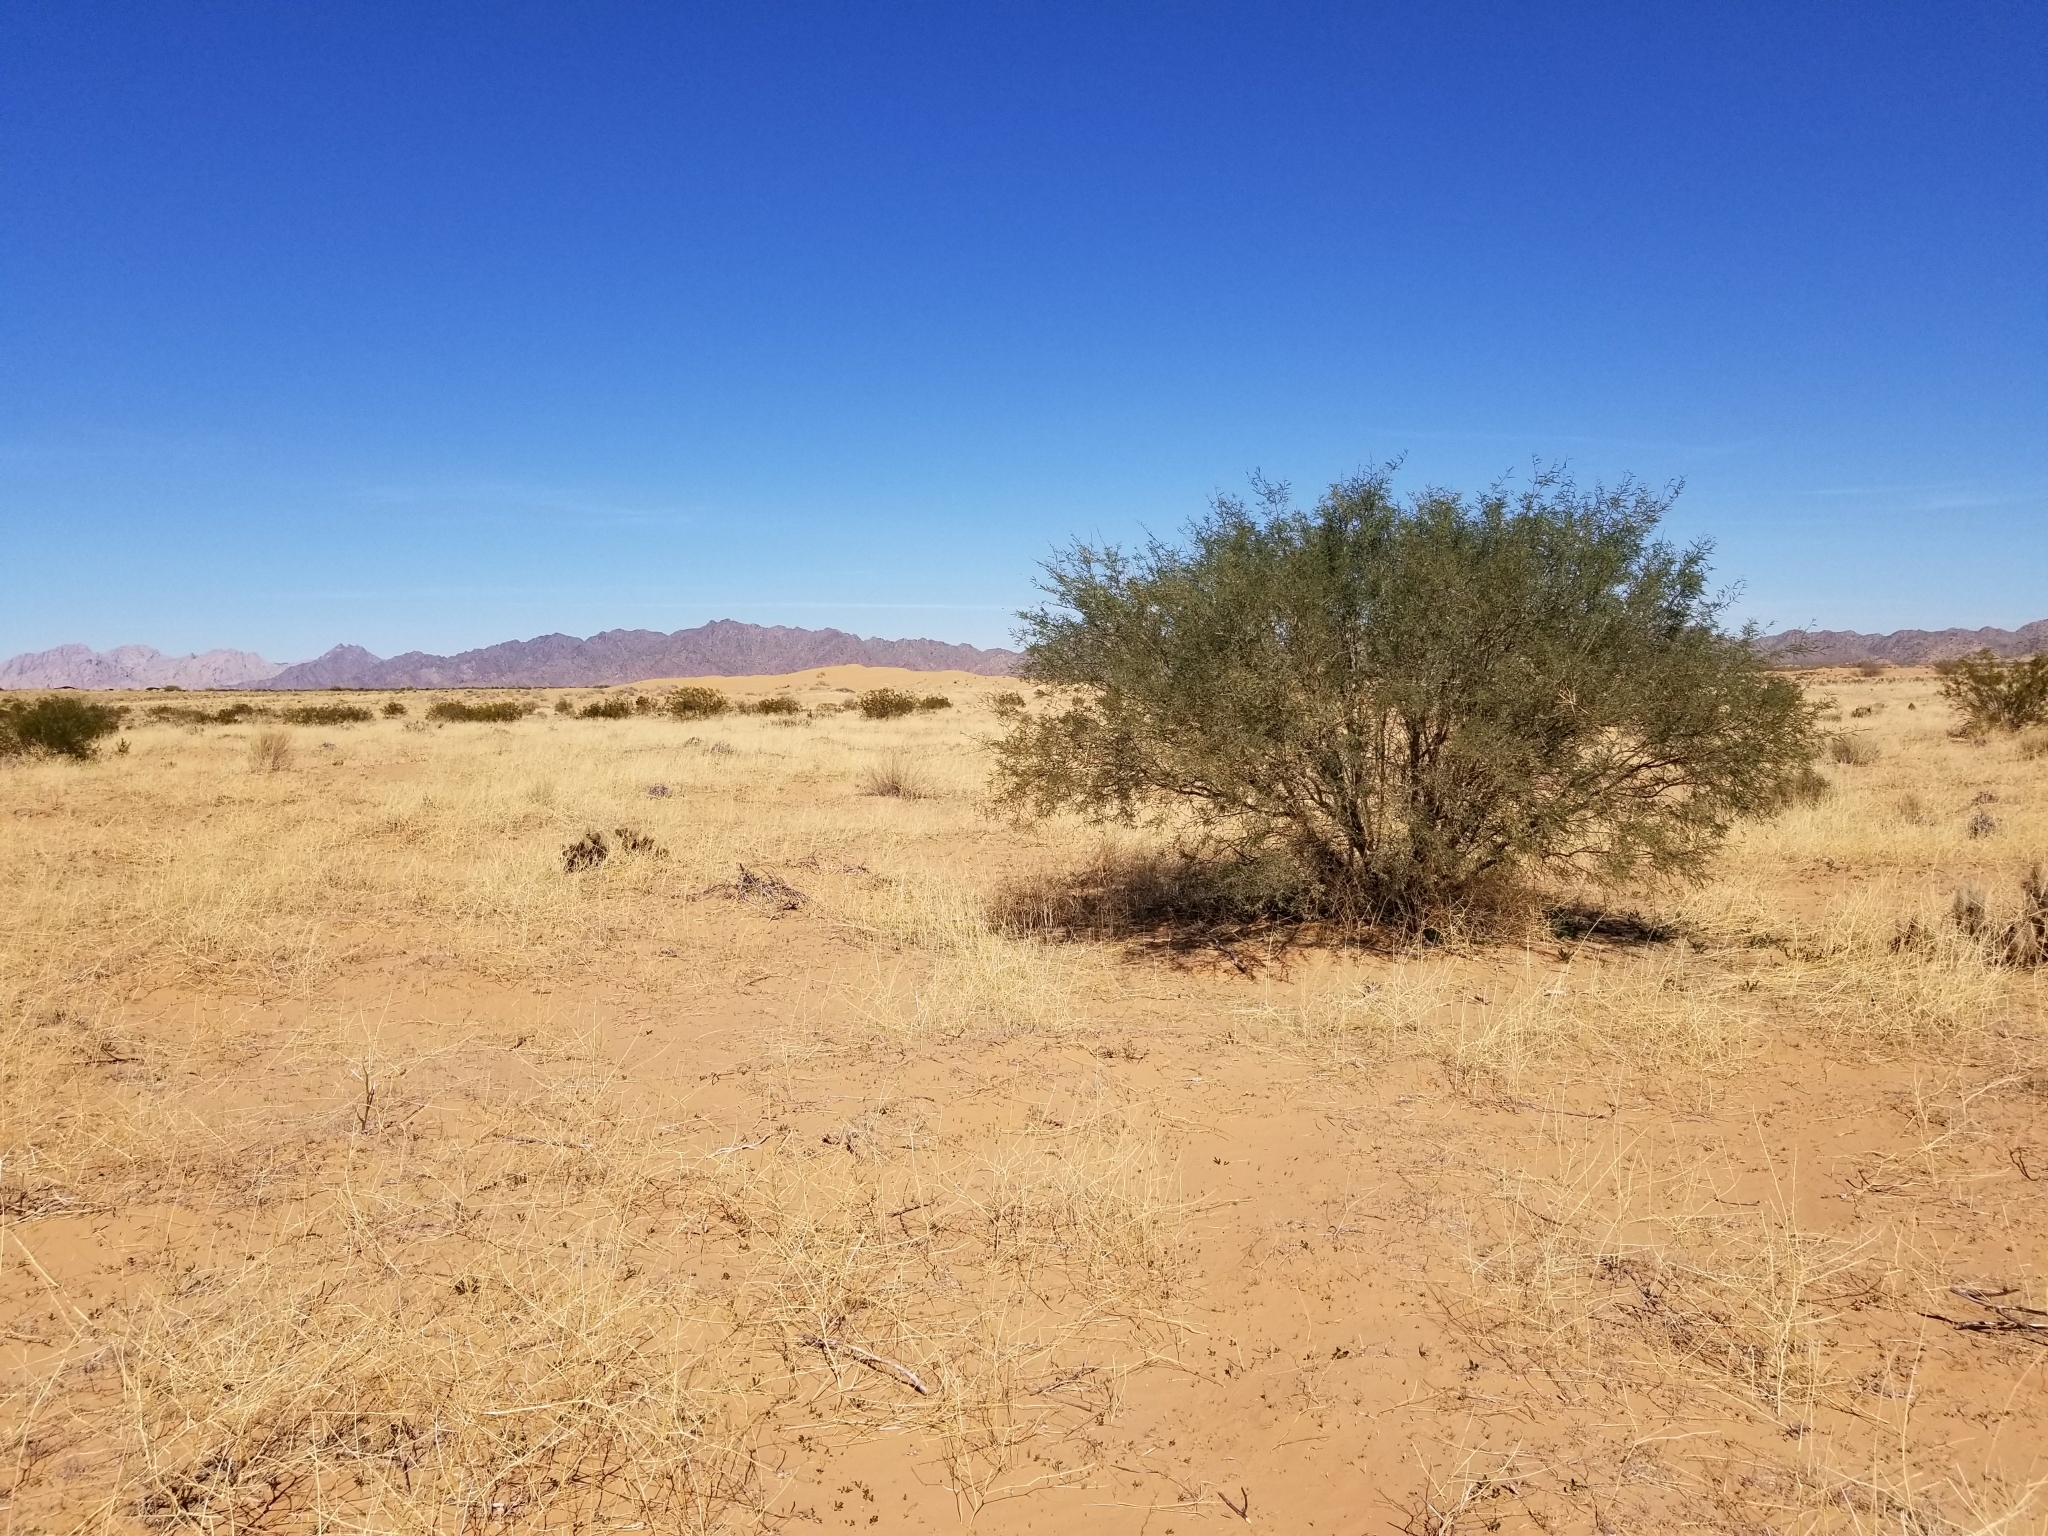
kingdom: Plantae
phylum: Tracheophyta
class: Magnoliopsida
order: Fabales
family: Fabaceae
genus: Prosopis
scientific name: Prosopis velutina
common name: Velvet mesquite
